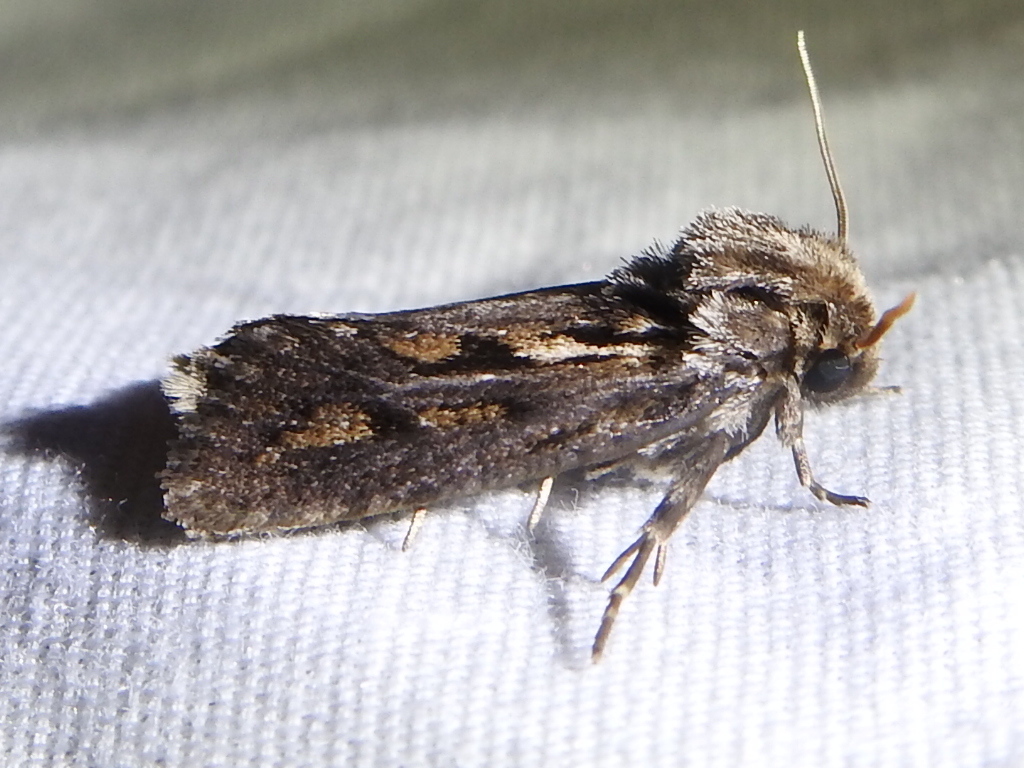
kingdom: Animalia
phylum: Arthropoda
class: Insecta
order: Lepidoptera
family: Tineidae
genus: Acrolophus
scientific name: Acrolophus popeanella
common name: Clemens' grass tubeworm moth
